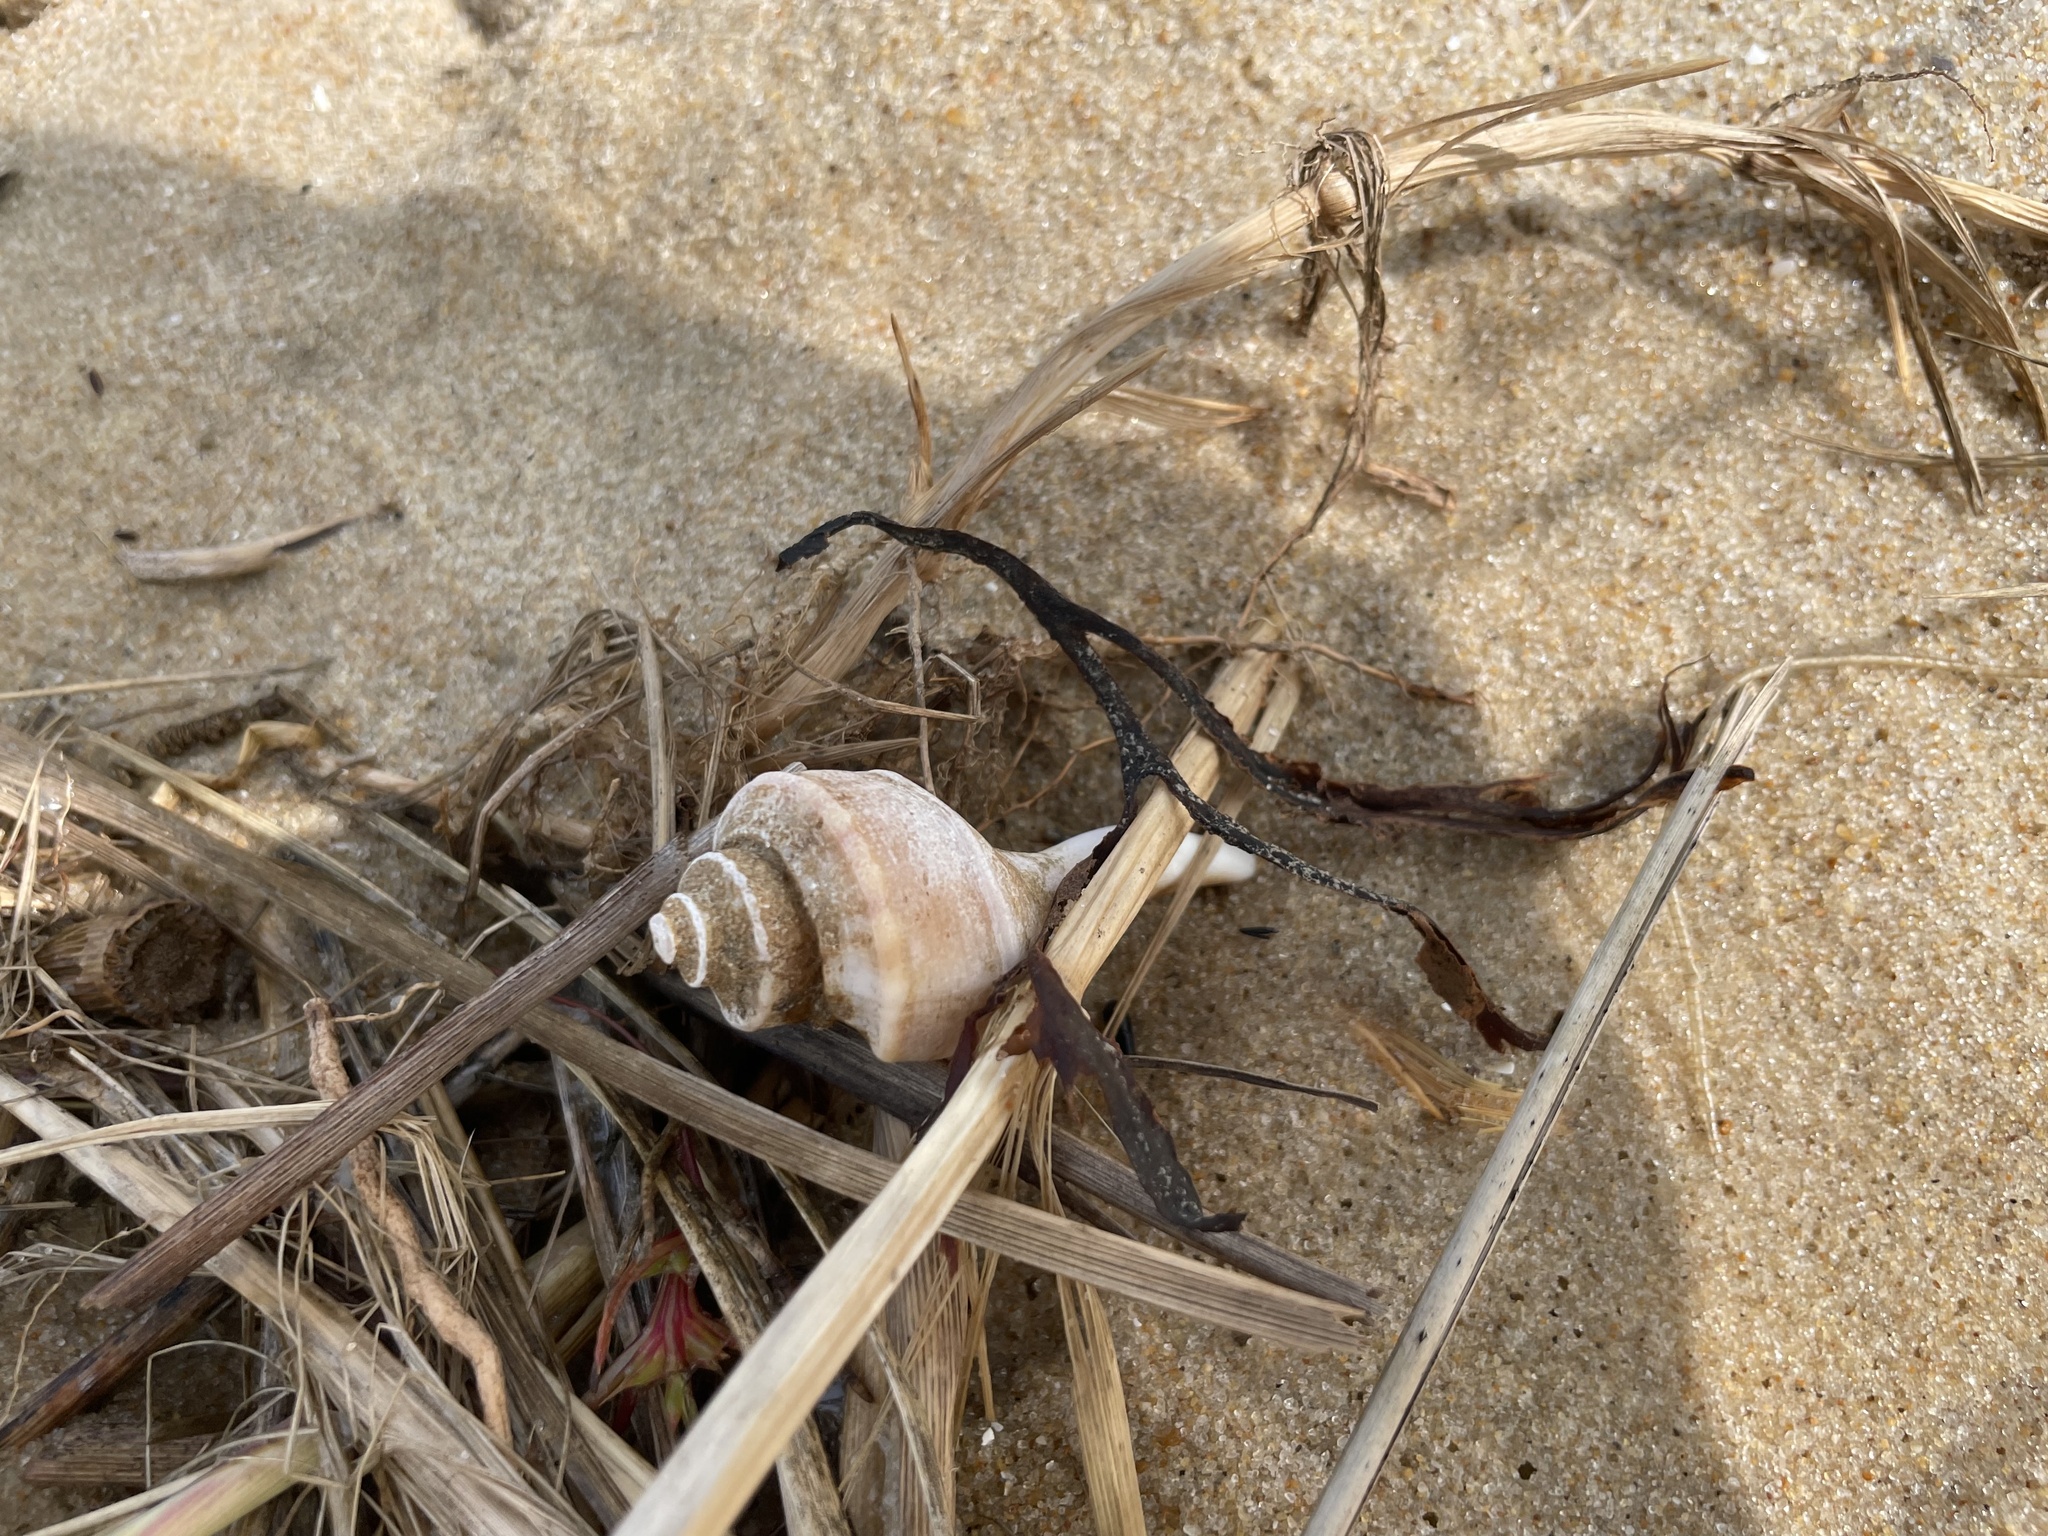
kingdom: Animalia
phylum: Mollusca
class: Gastropoda
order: Neogastropoda
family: Busyconidae
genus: Busycotypus
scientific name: Busycotypus canaliculatus
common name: Channeled whelk
